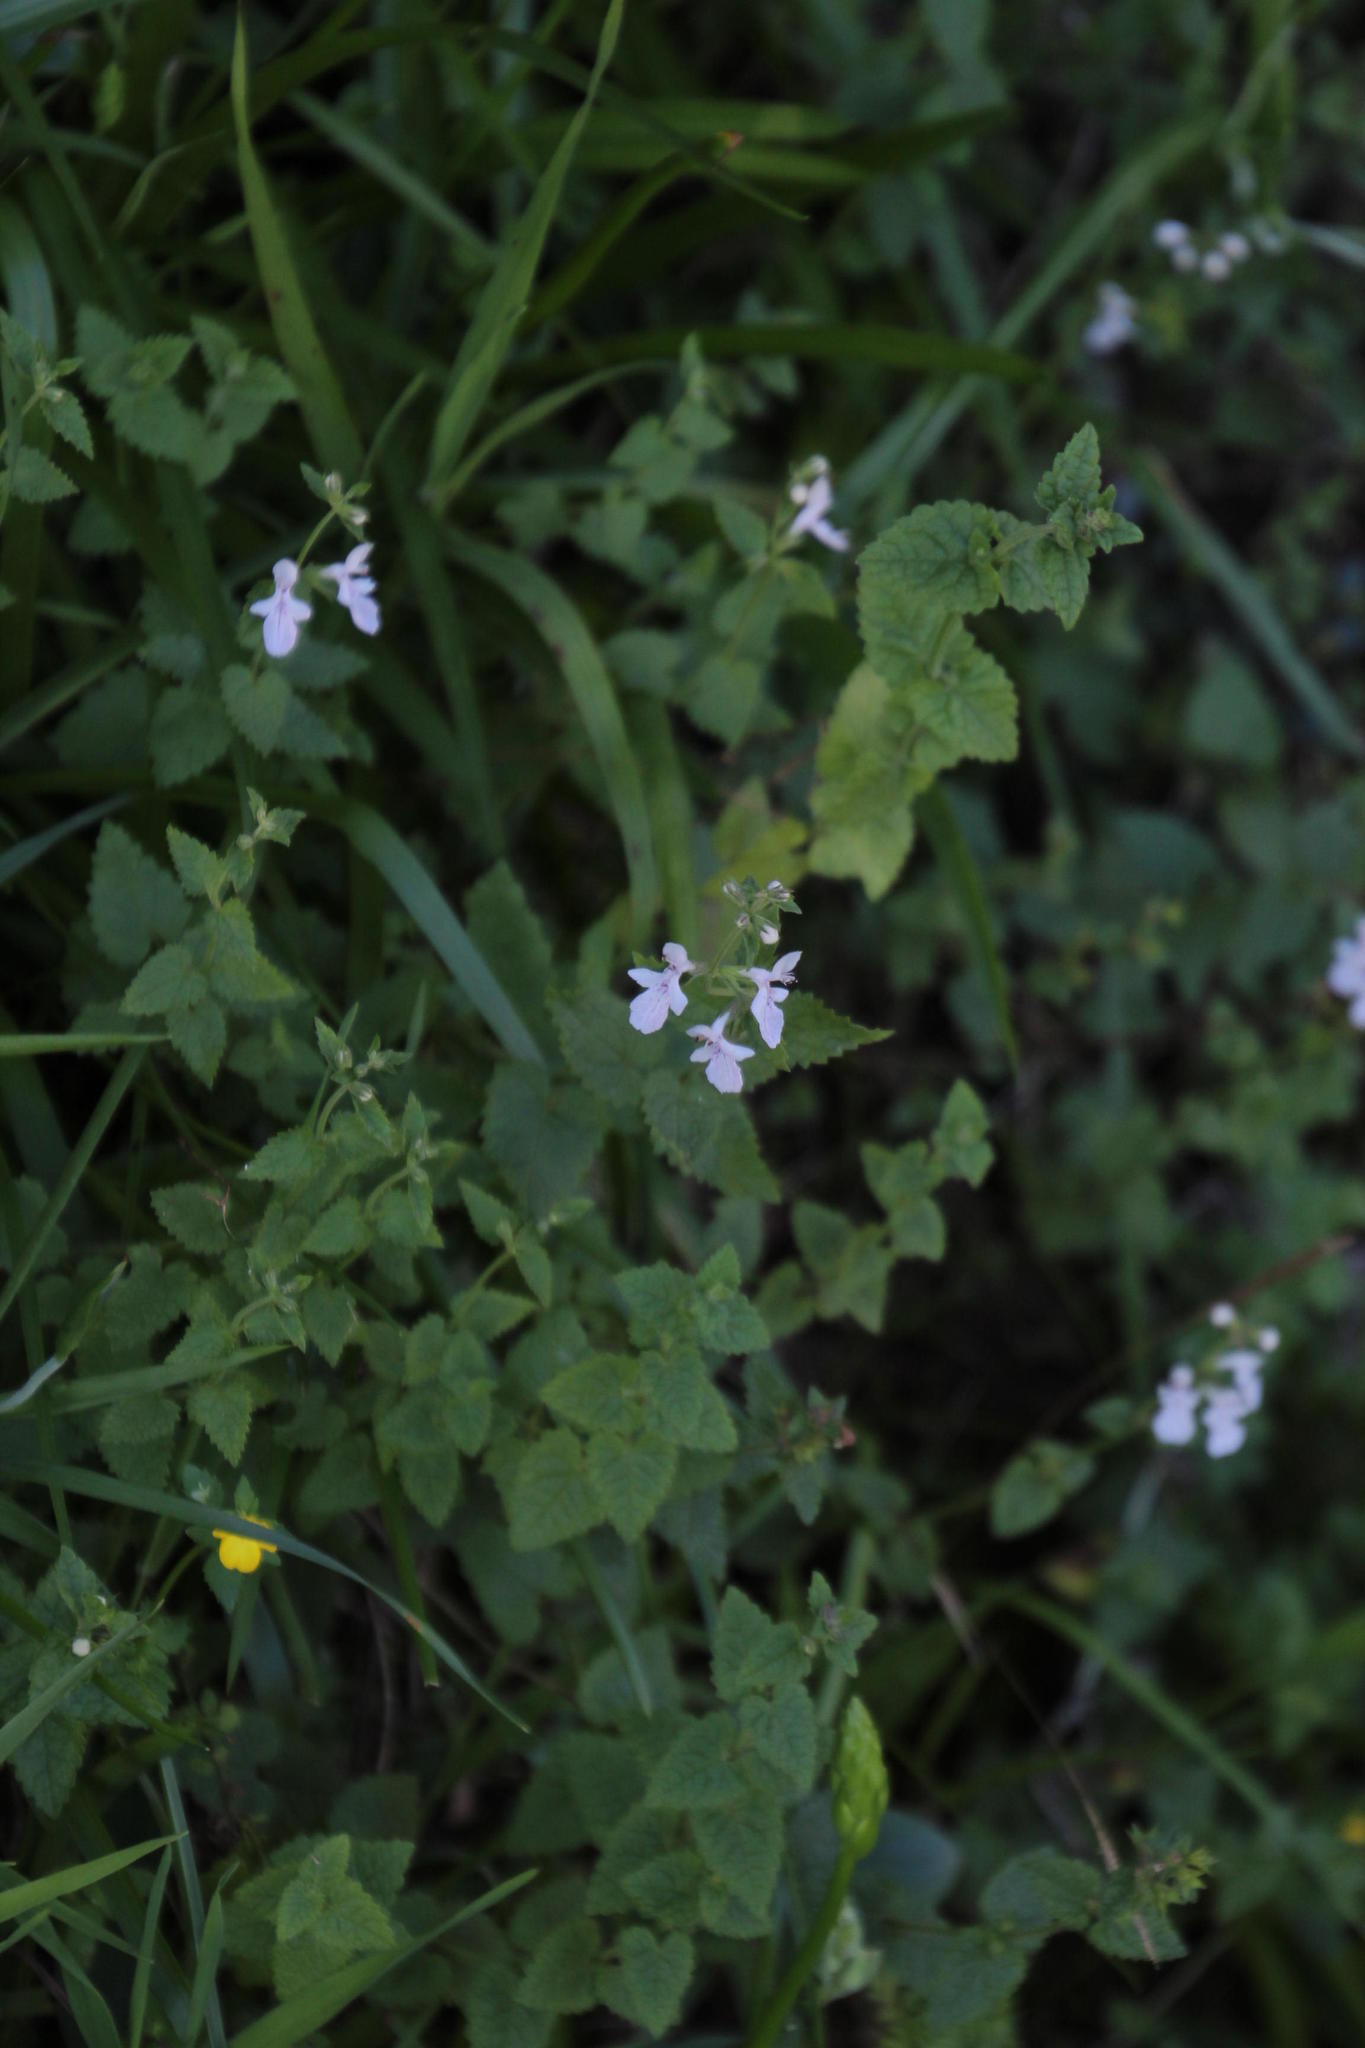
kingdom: Plantae
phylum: Tracheophyta
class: Magnoliopsida
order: Lamiales
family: Lamiaceae
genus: Stachys
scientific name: Stachys aethiopica
